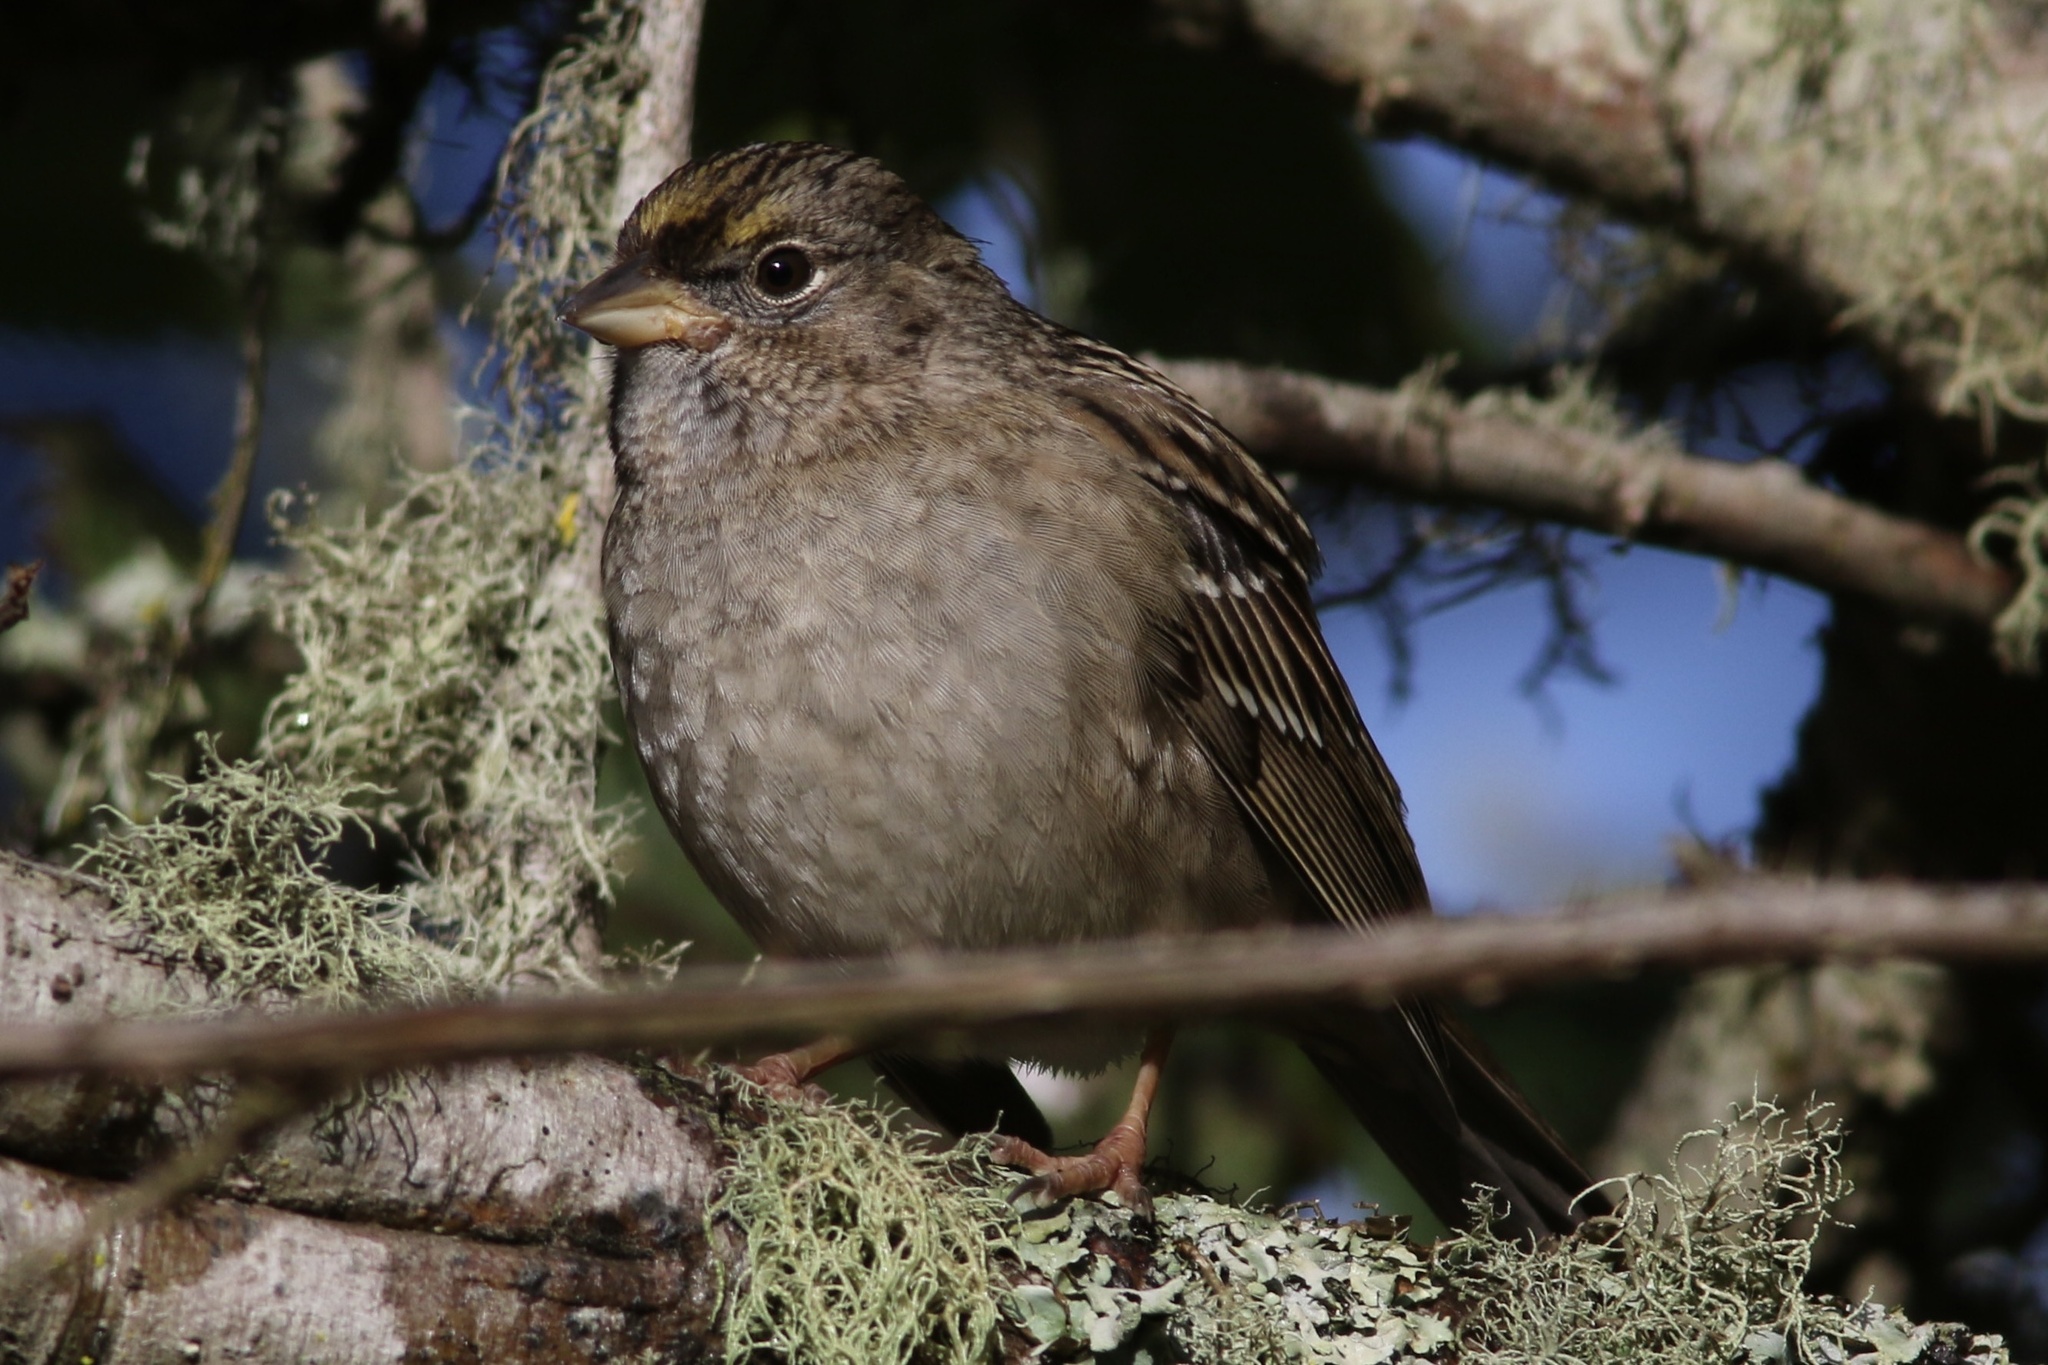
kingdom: Animalia
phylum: Chordata
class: Aves
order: Passeriformes
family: Passerellidae
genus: Zonotrichia
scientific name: Zonotrichia atricapilla
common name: Golden-crowned sparrow
